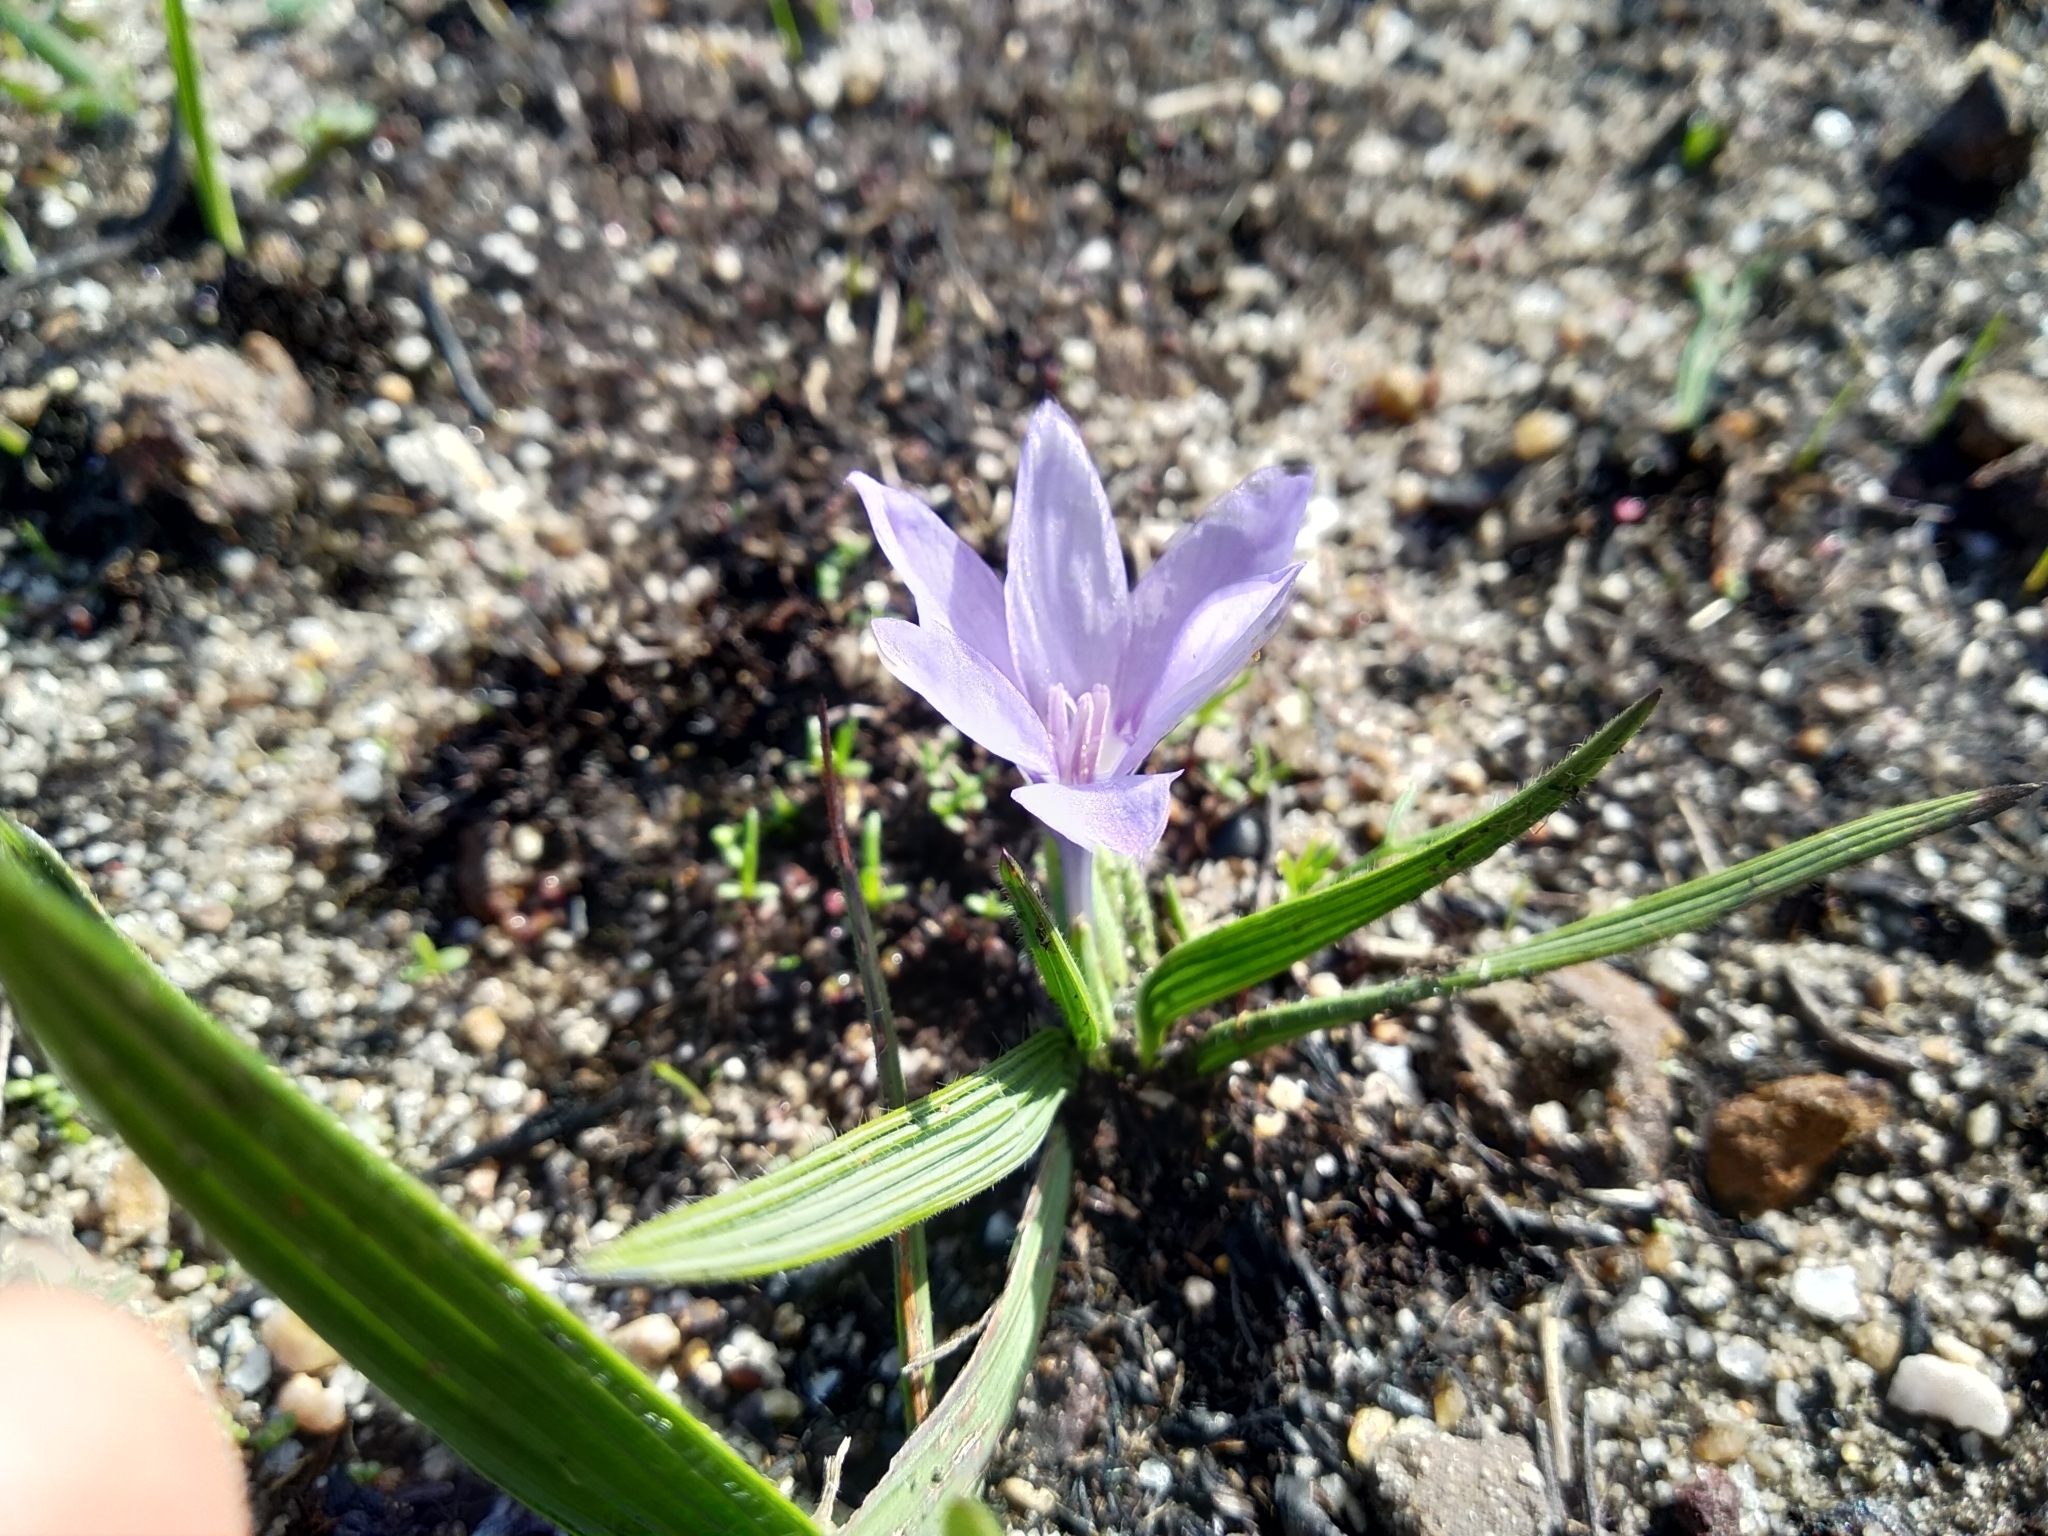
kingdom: Plantae
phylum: Tracheophyta
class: Liliopsida
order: Asparagales
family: Iridaceae
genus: Babiana
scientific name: Babiana villosula
